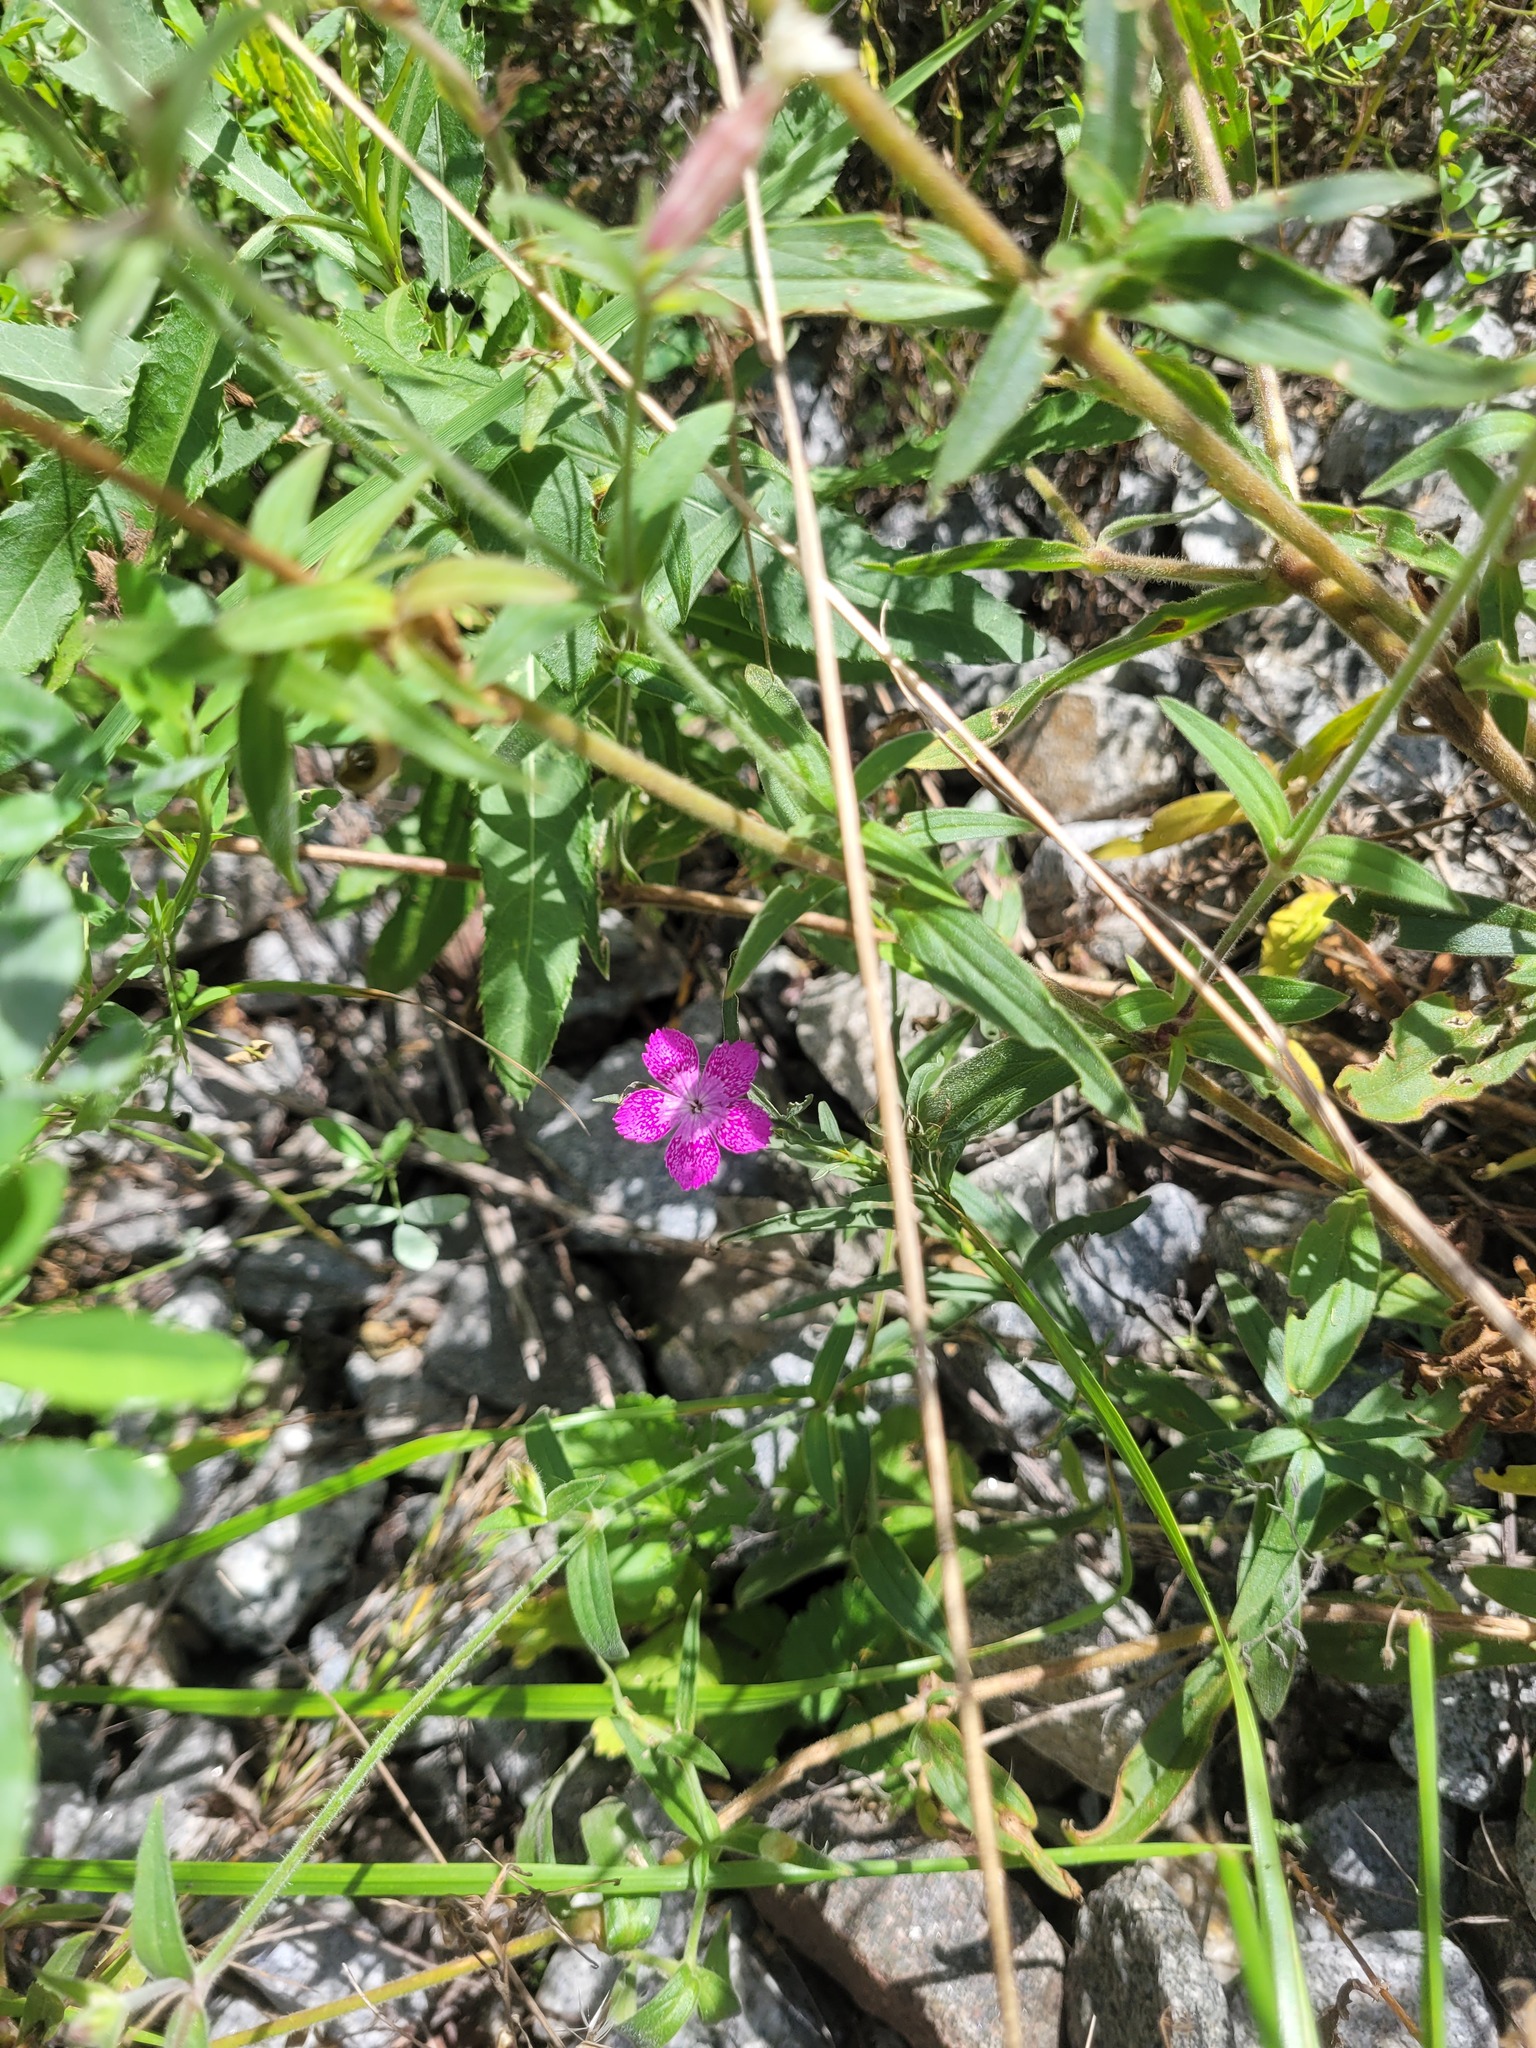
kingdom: Plantae
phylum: Tracheophyta
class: Magnoliopsida
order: Caryophyllales
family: Caryophyllaceae
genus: Dianthus
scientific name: Dianthus chinensis
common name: Rainbow pink
